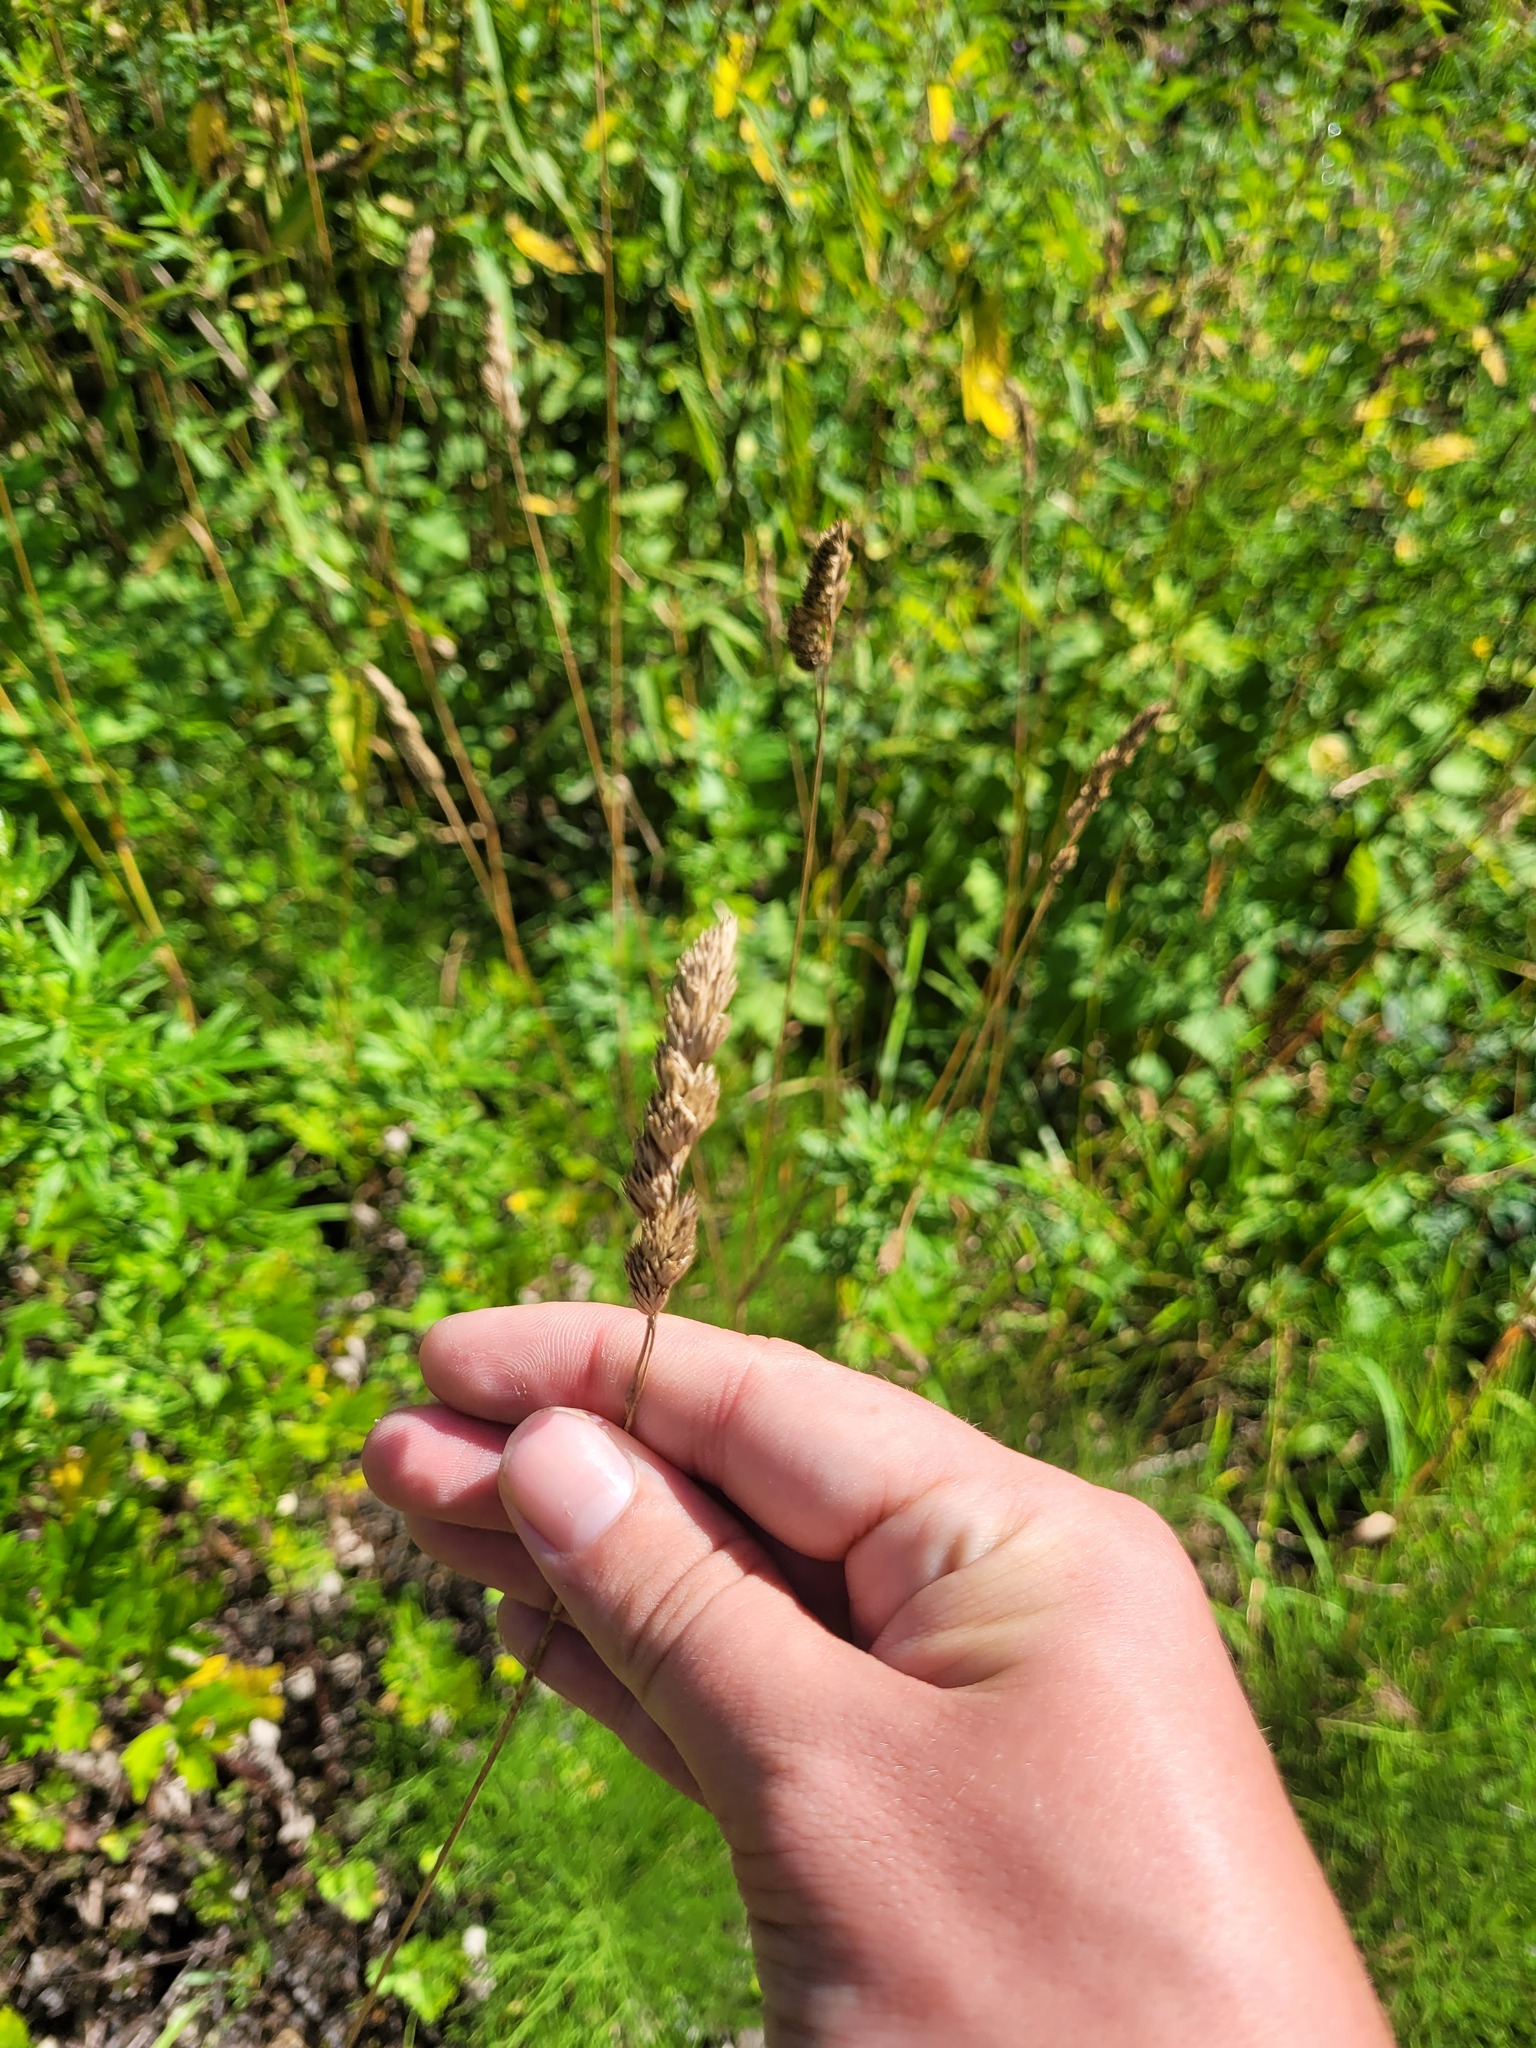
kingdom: Plantae
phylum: Tracheophyta
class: Liliopsida
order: Poales
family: Poaceae
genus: Dactylis
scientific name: Dactylis glomerata
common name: Orchardgrass
